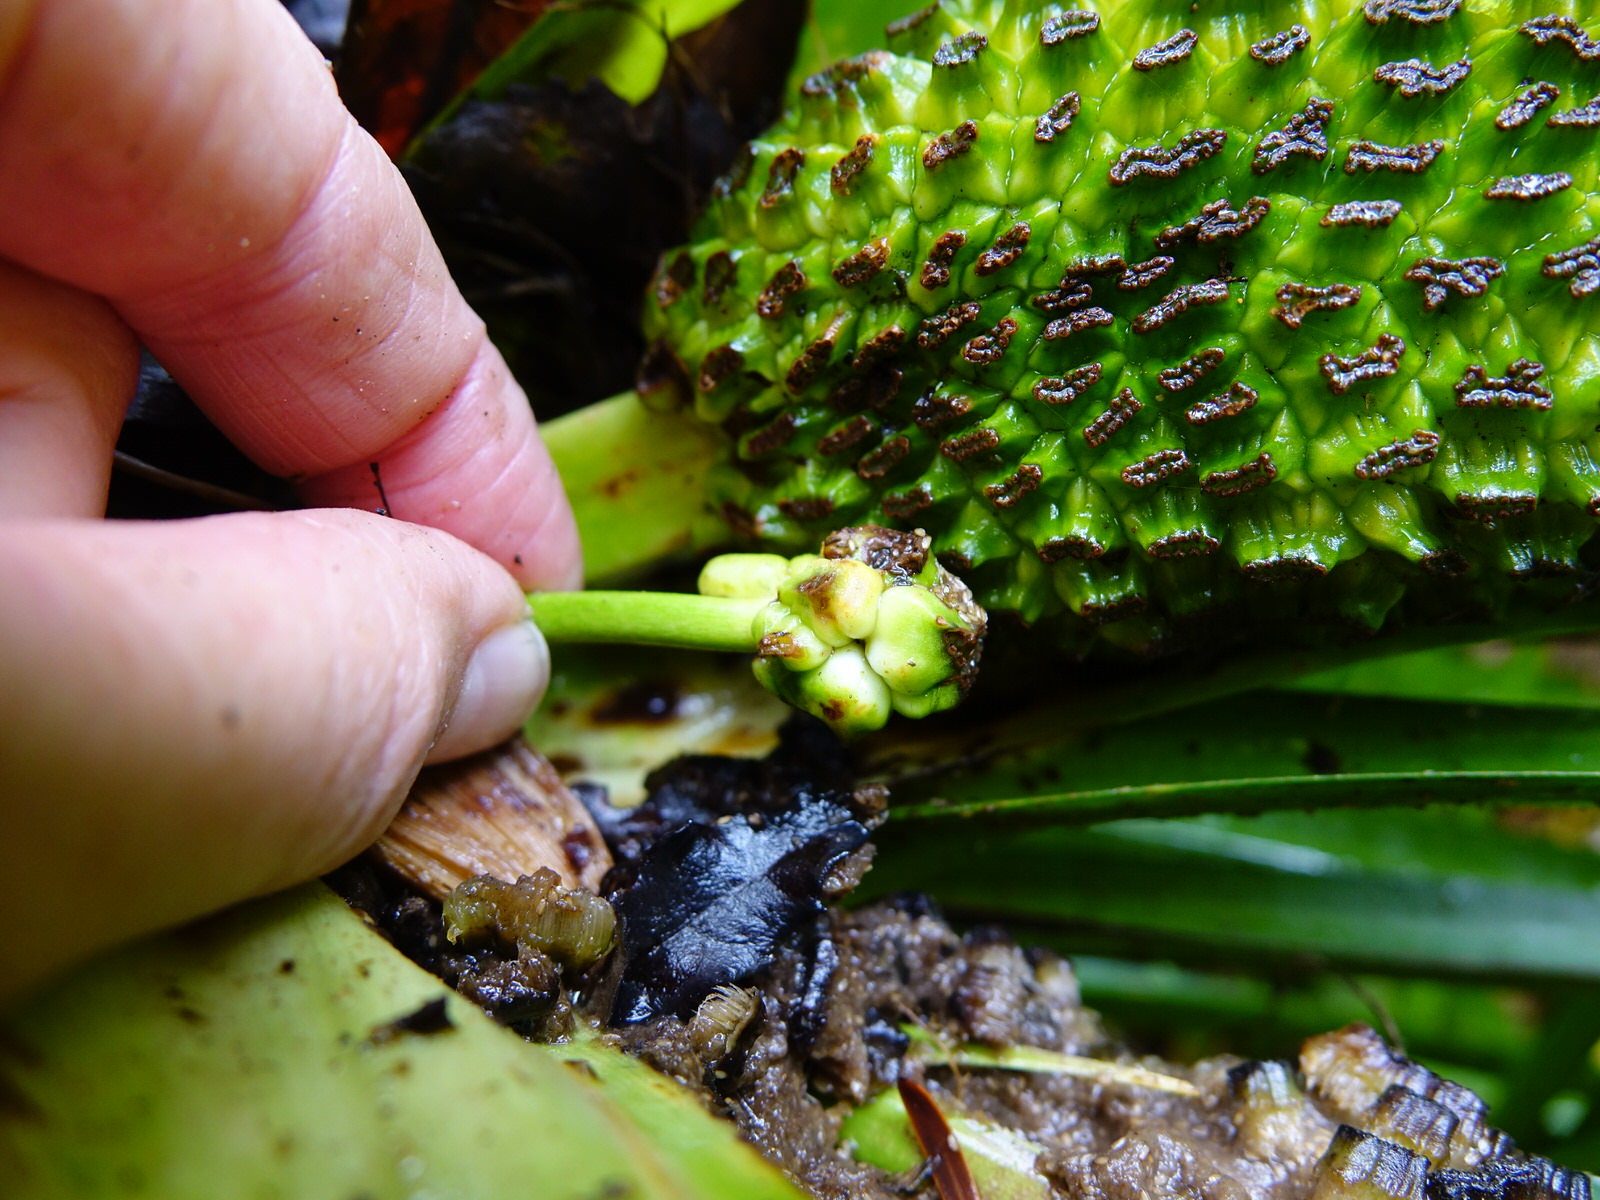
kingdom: Plantae
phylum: Tracheophyta
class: Liliopsida
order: Pandanales
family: Pandanaceae
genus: Freycinetia
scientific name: Freycinetia banksii
